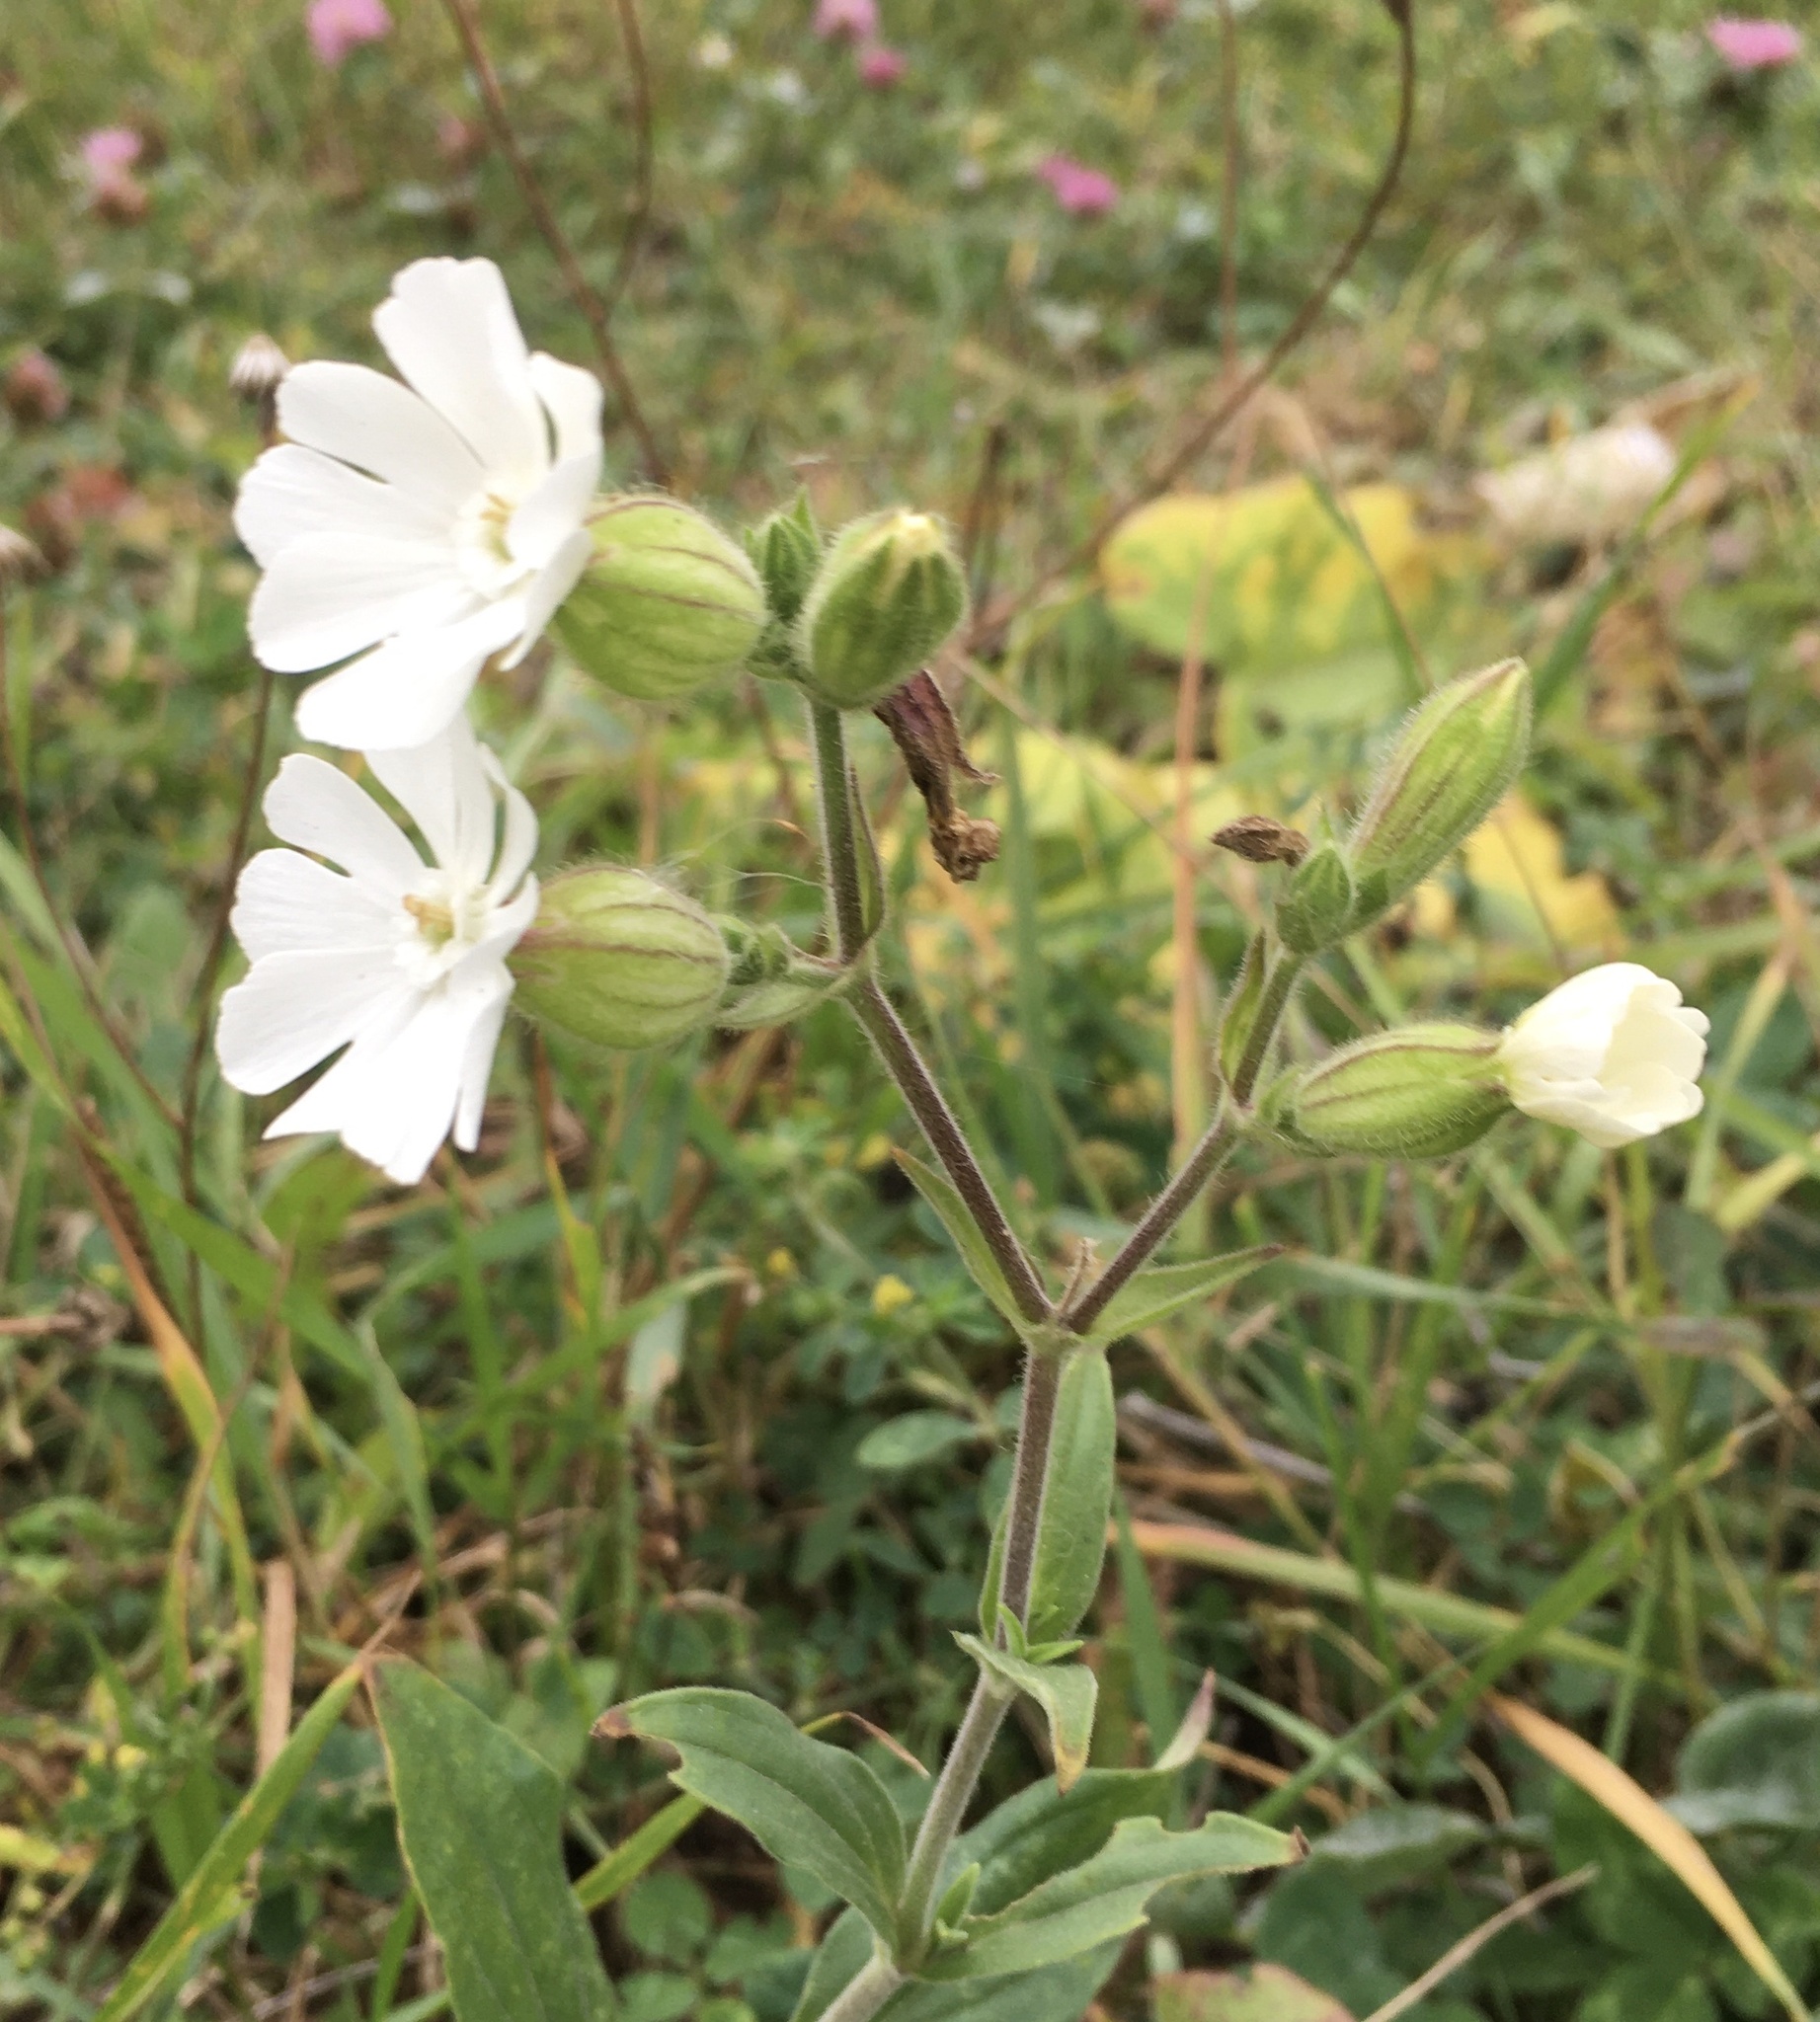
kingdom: Plantae
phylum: Tracheophyta
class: Magnoliopsida
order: Caryophyllales
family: Caryophyllaceae
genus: Silene
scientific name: Silene latifolia
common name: White campion
